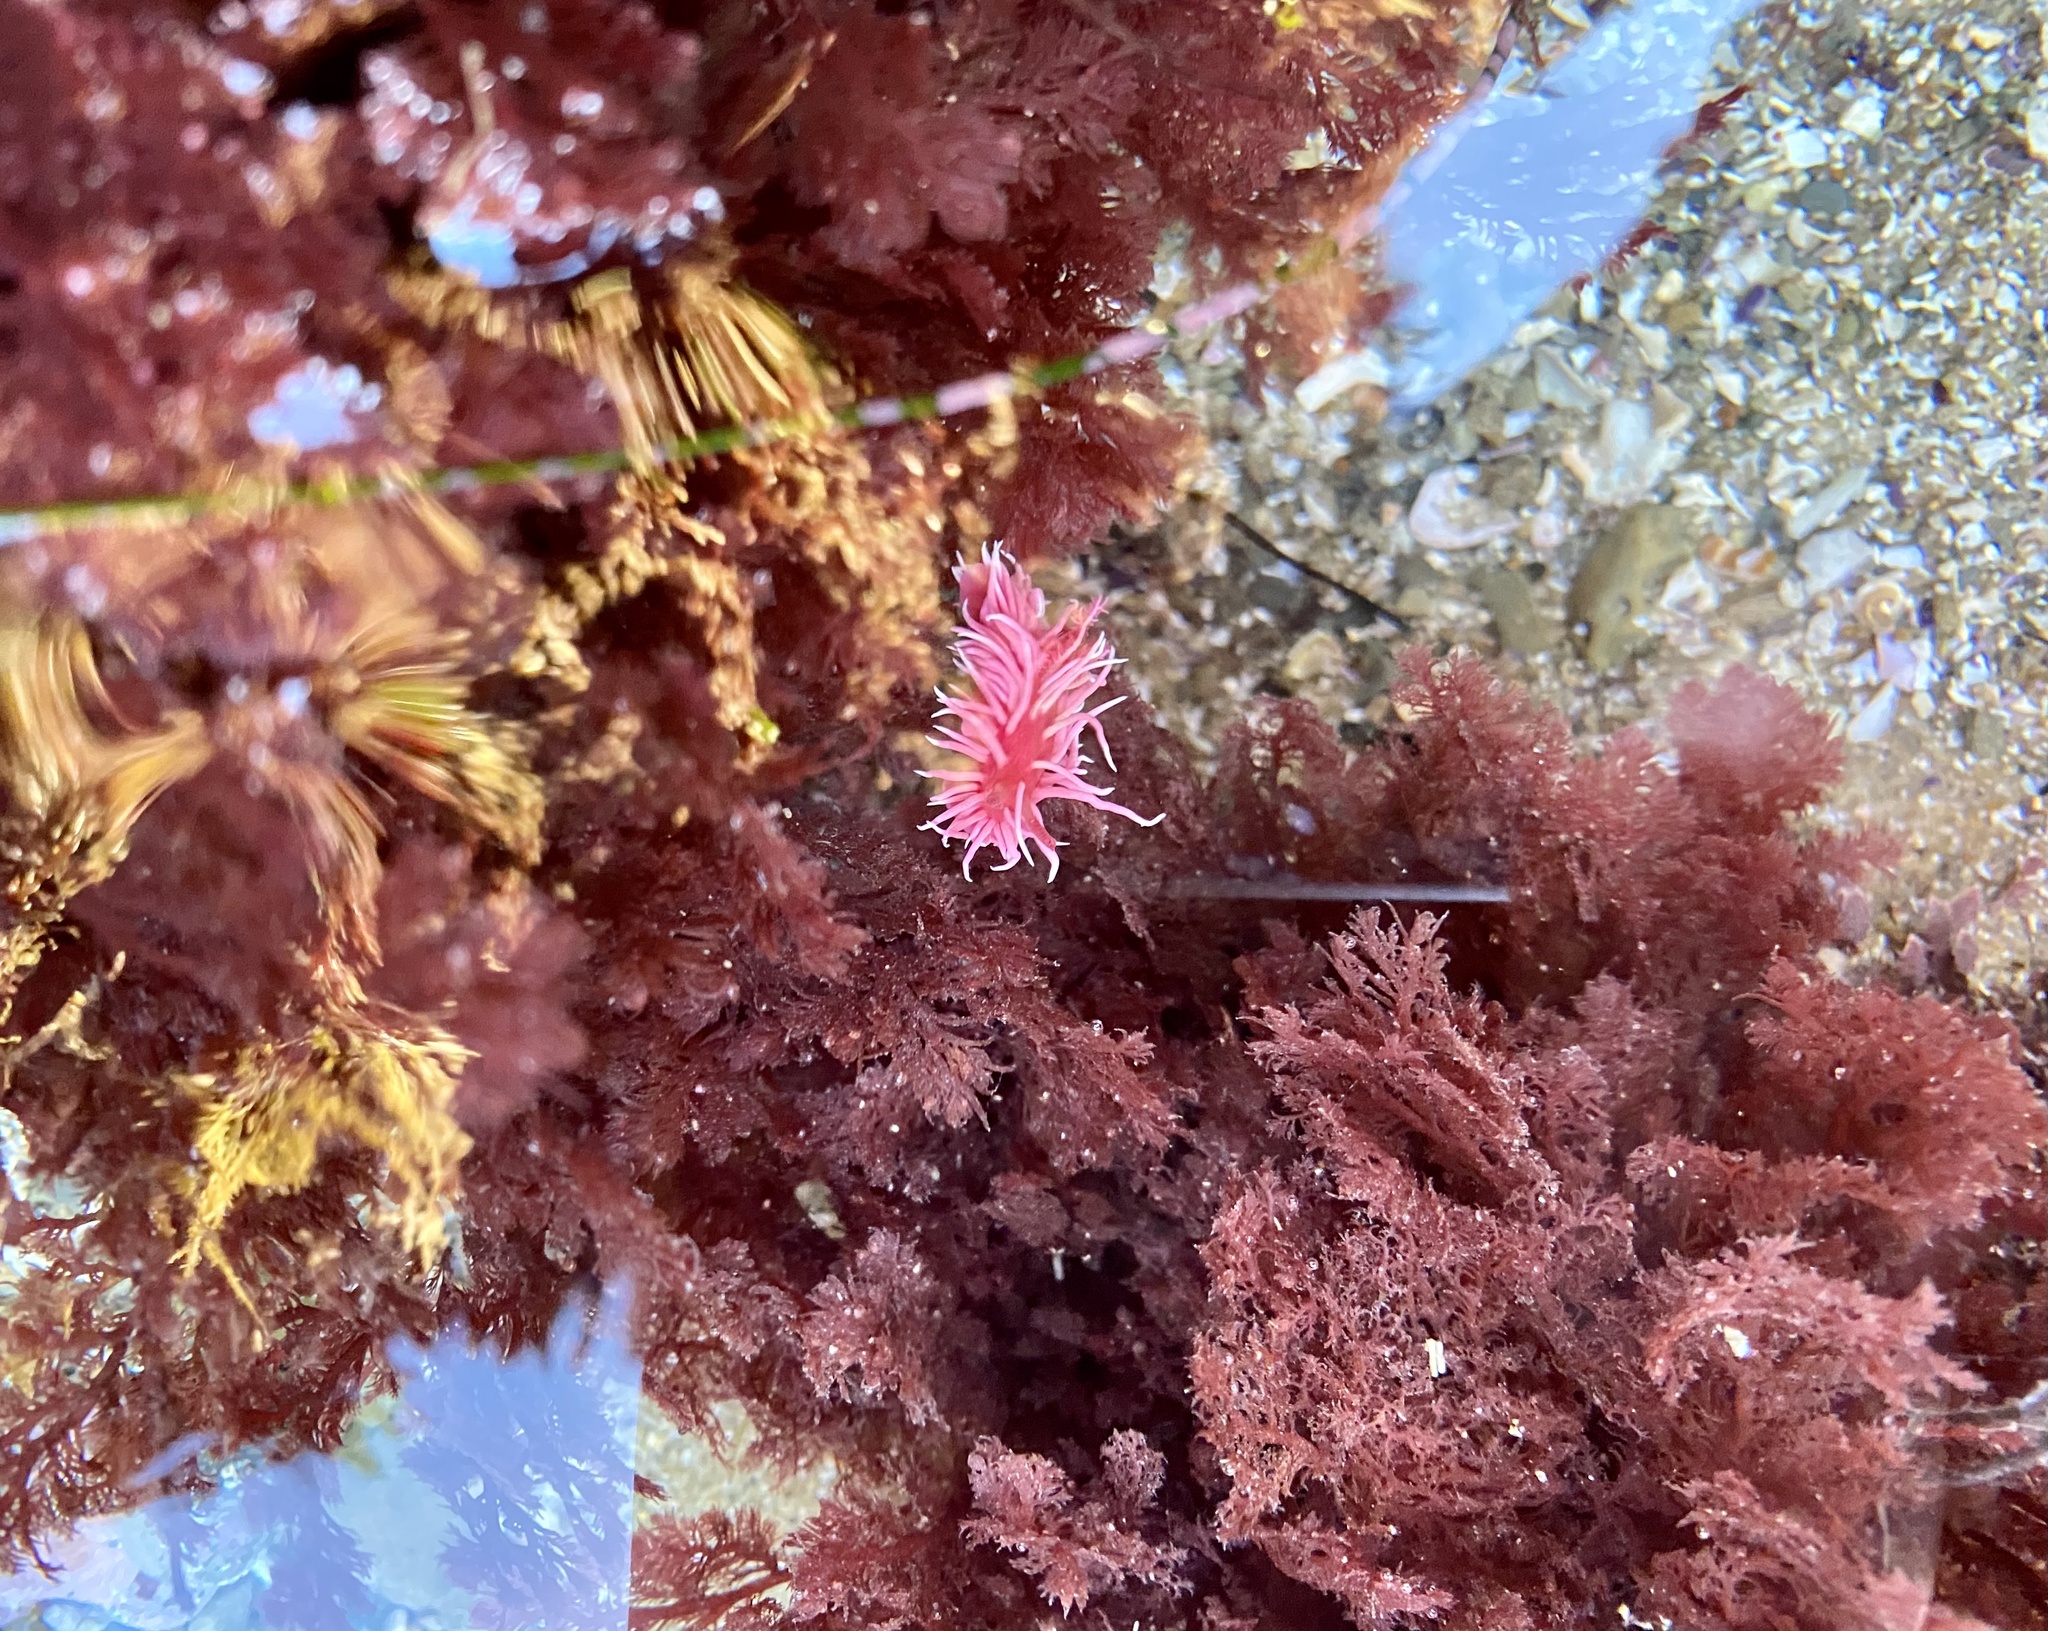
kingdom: Animalia
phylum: Mollusca
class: Gastropoda
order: Nudibranchia
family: Goniodorididae
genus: Okenia
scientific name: Okenia
